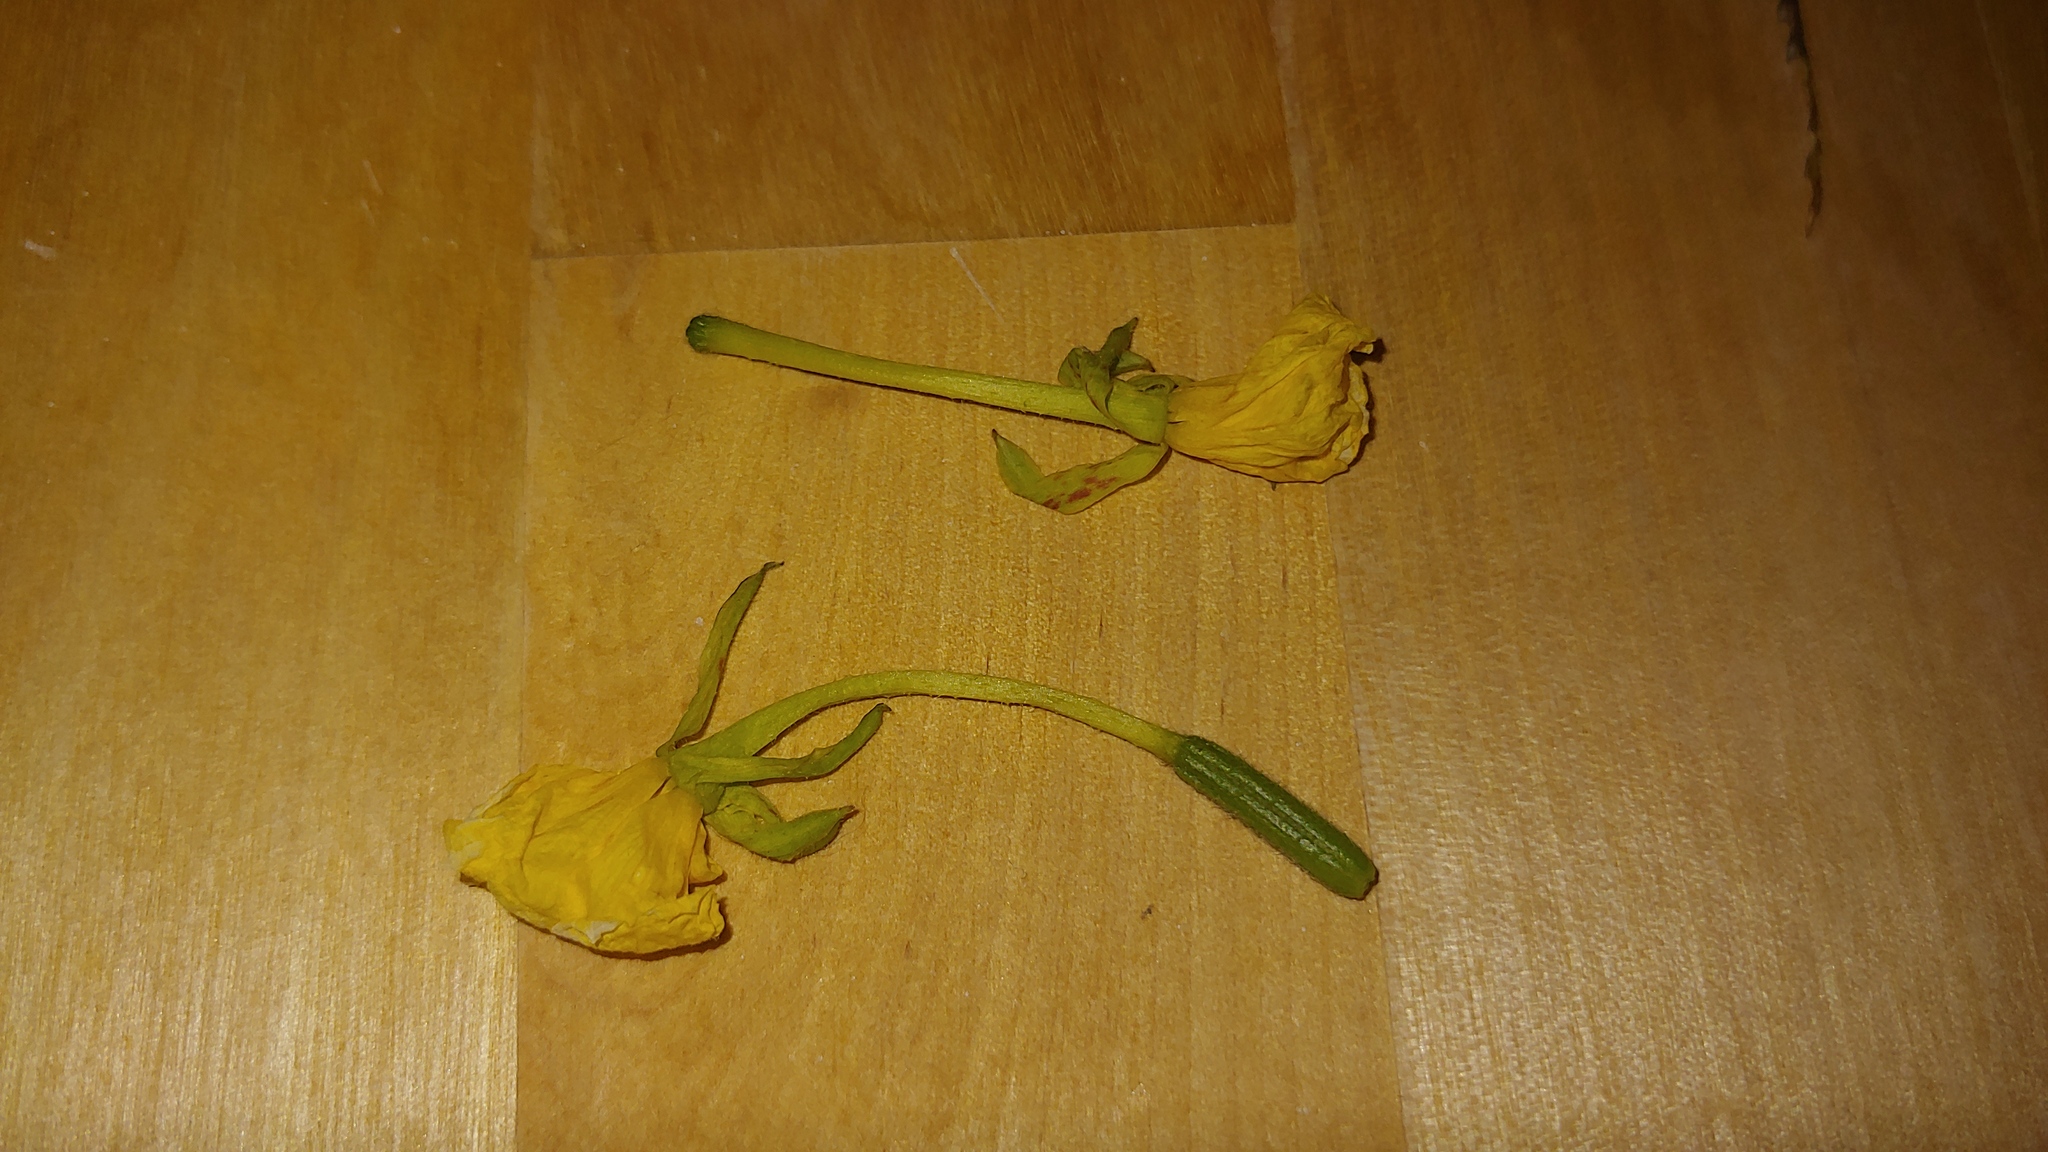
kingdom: Plantae
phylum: Tracheophyta
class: Magnoliopsida
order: Myrtales
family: Onagraceae
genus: Oenothera
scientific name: Oenothera oakesiana
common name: Oakes' evening-primrose
